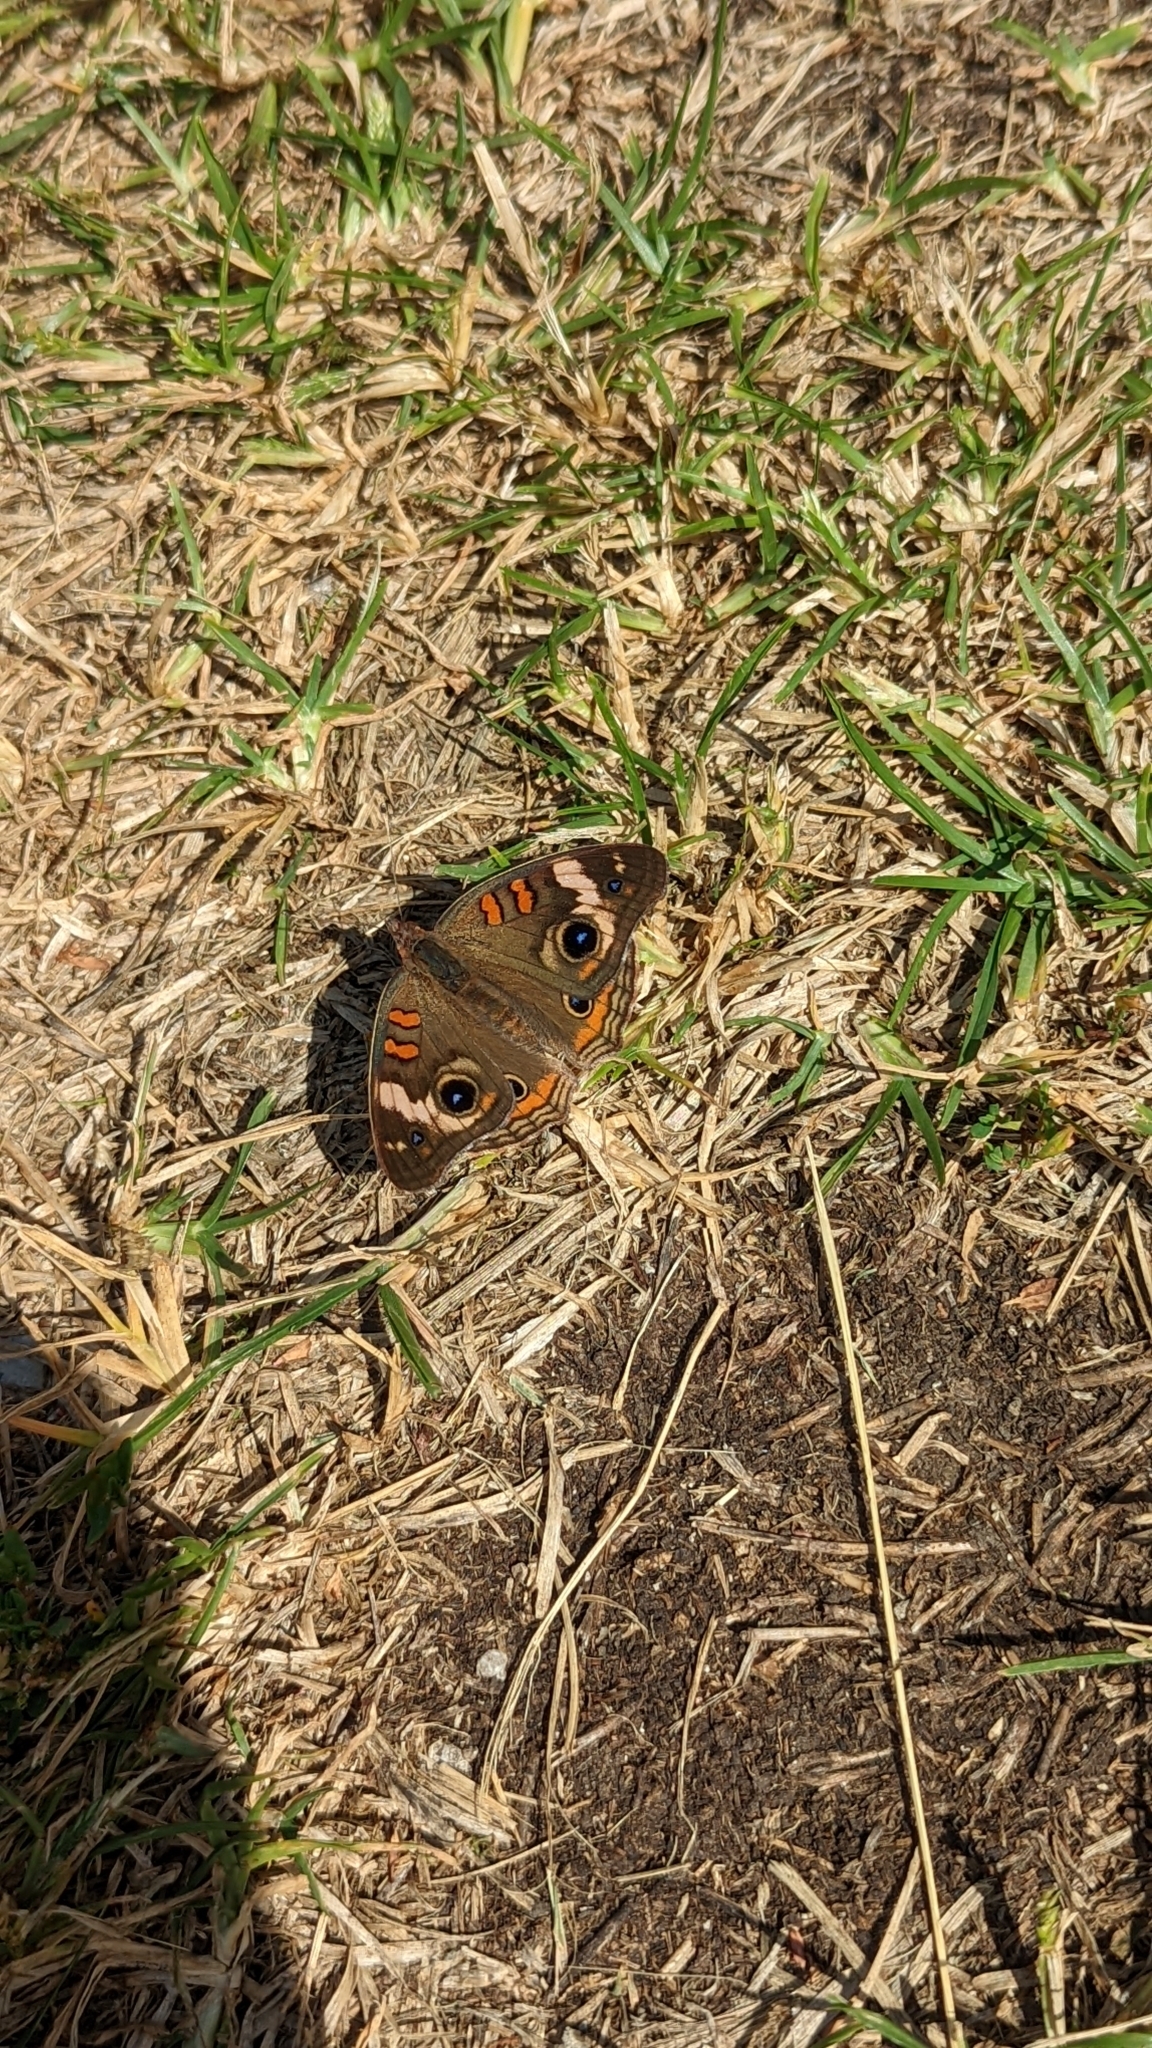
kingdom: Animalia
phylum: Arthropoda
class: Insecta
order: Lepidoptera
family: Nymphalidae
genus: Junonia
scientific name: Junonia coenia
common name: Common buckeye
